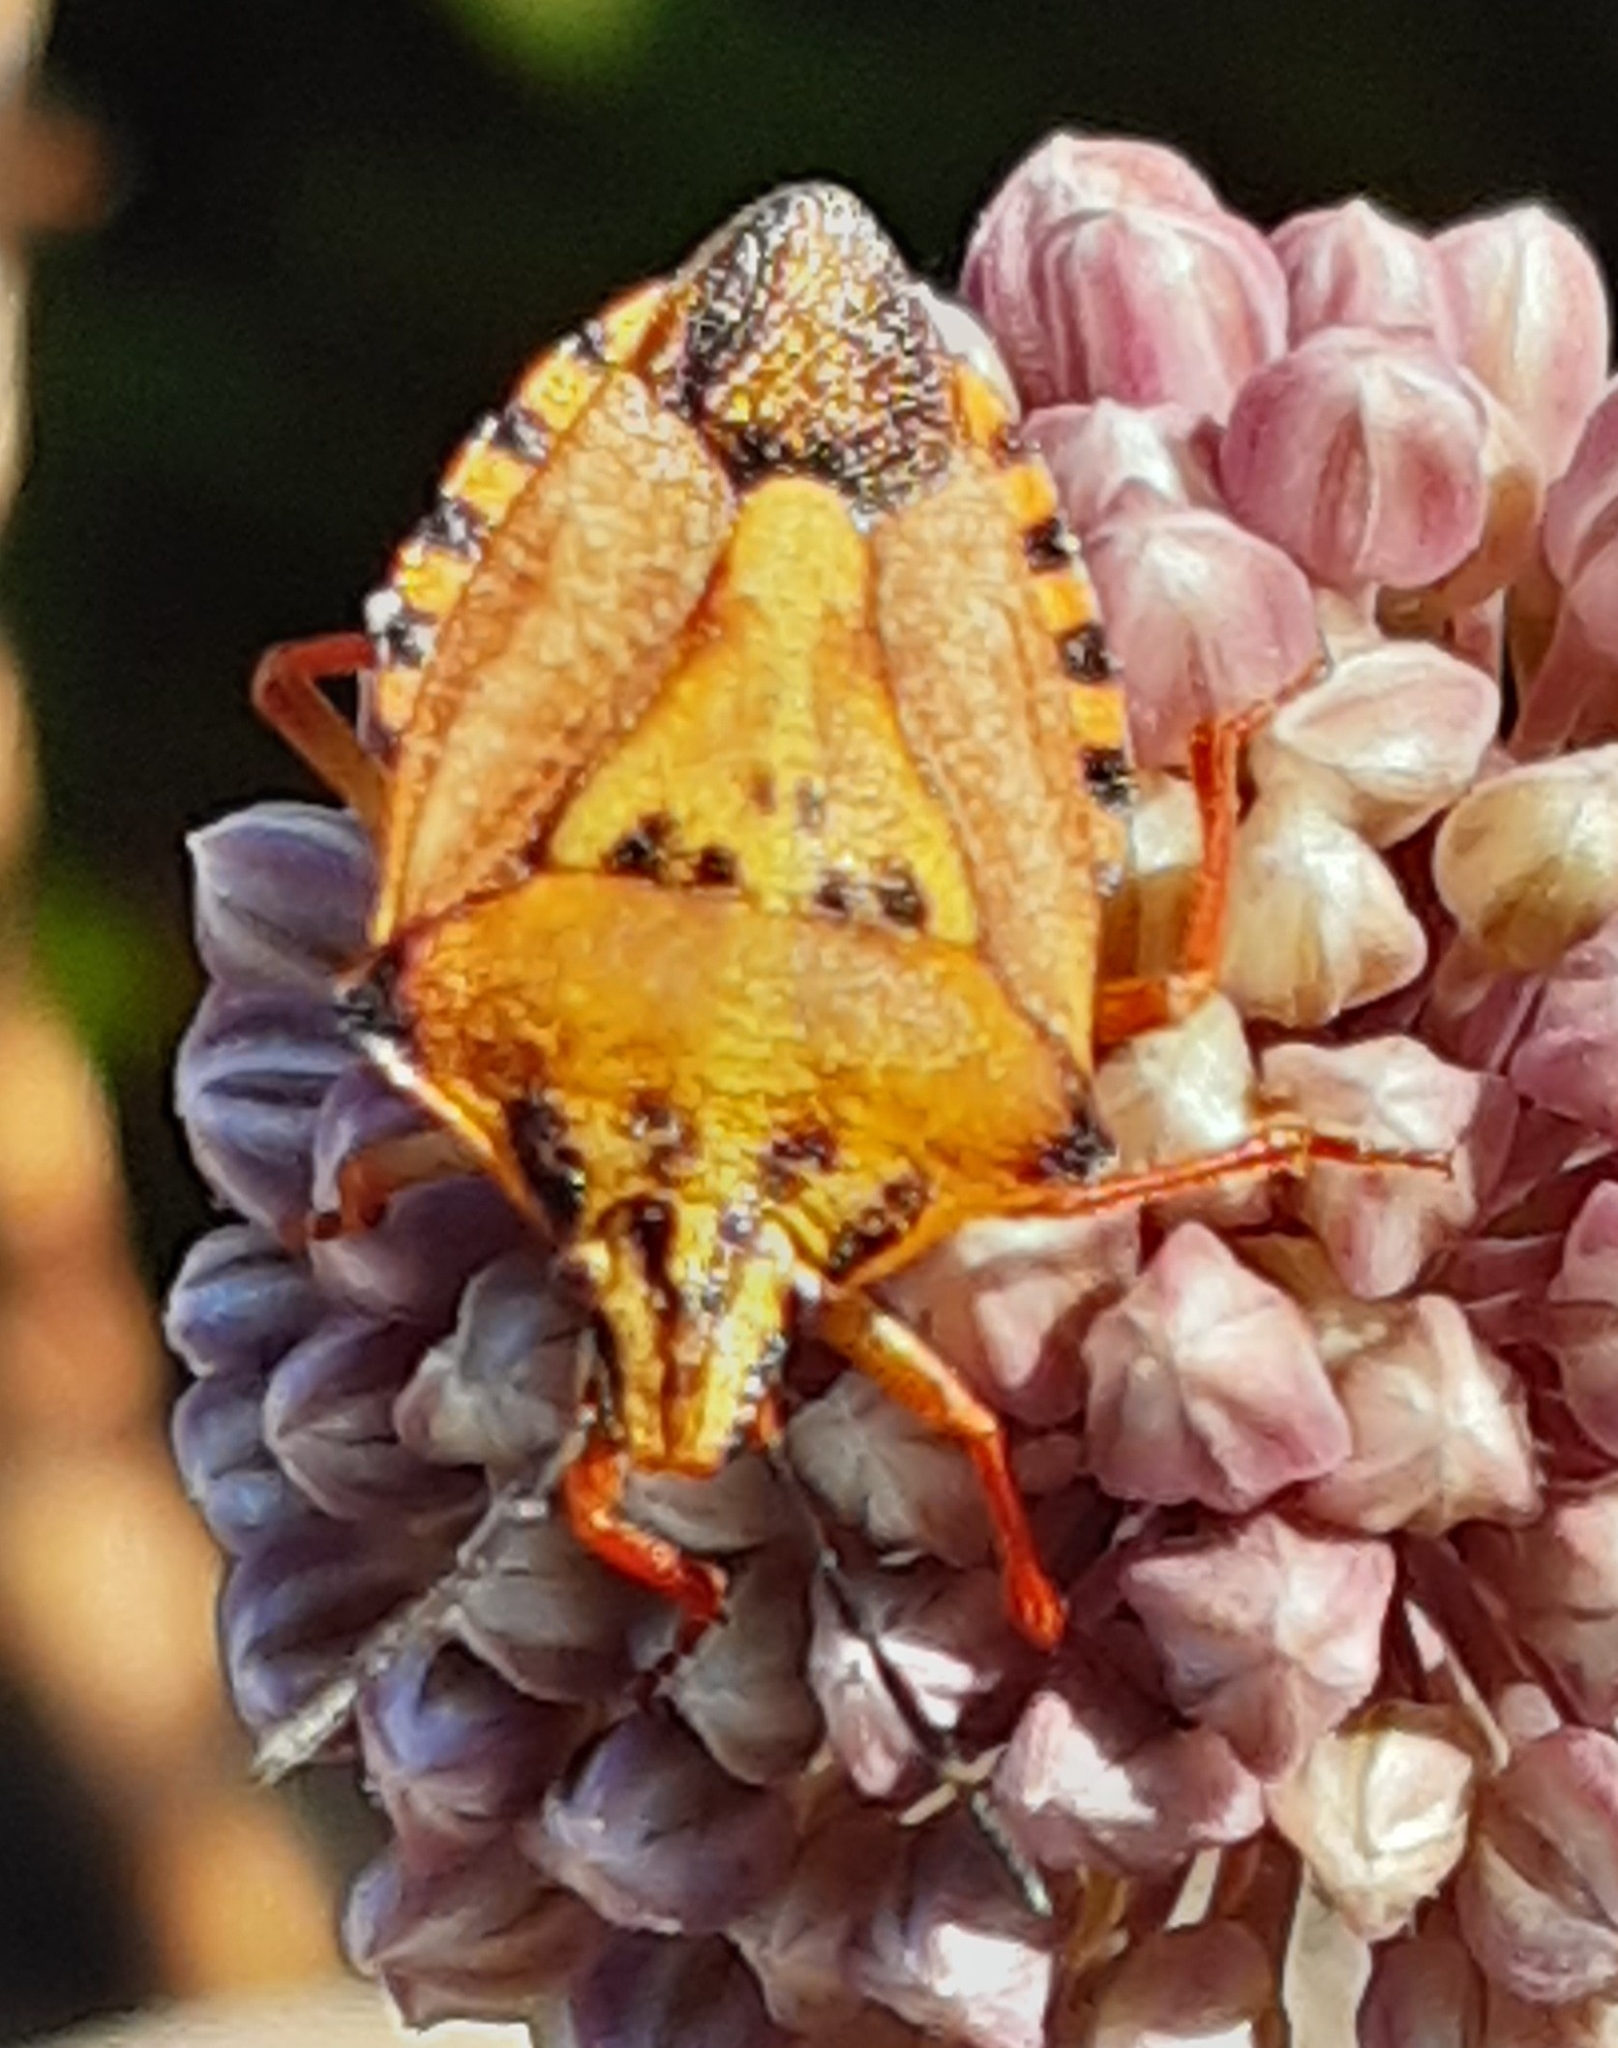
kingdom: Animalia
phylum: Arthropoda
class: Insecta
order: Hemiptera
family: Pentatomidae
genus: Carpocoris
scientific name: Carpocoris mediterraneus
